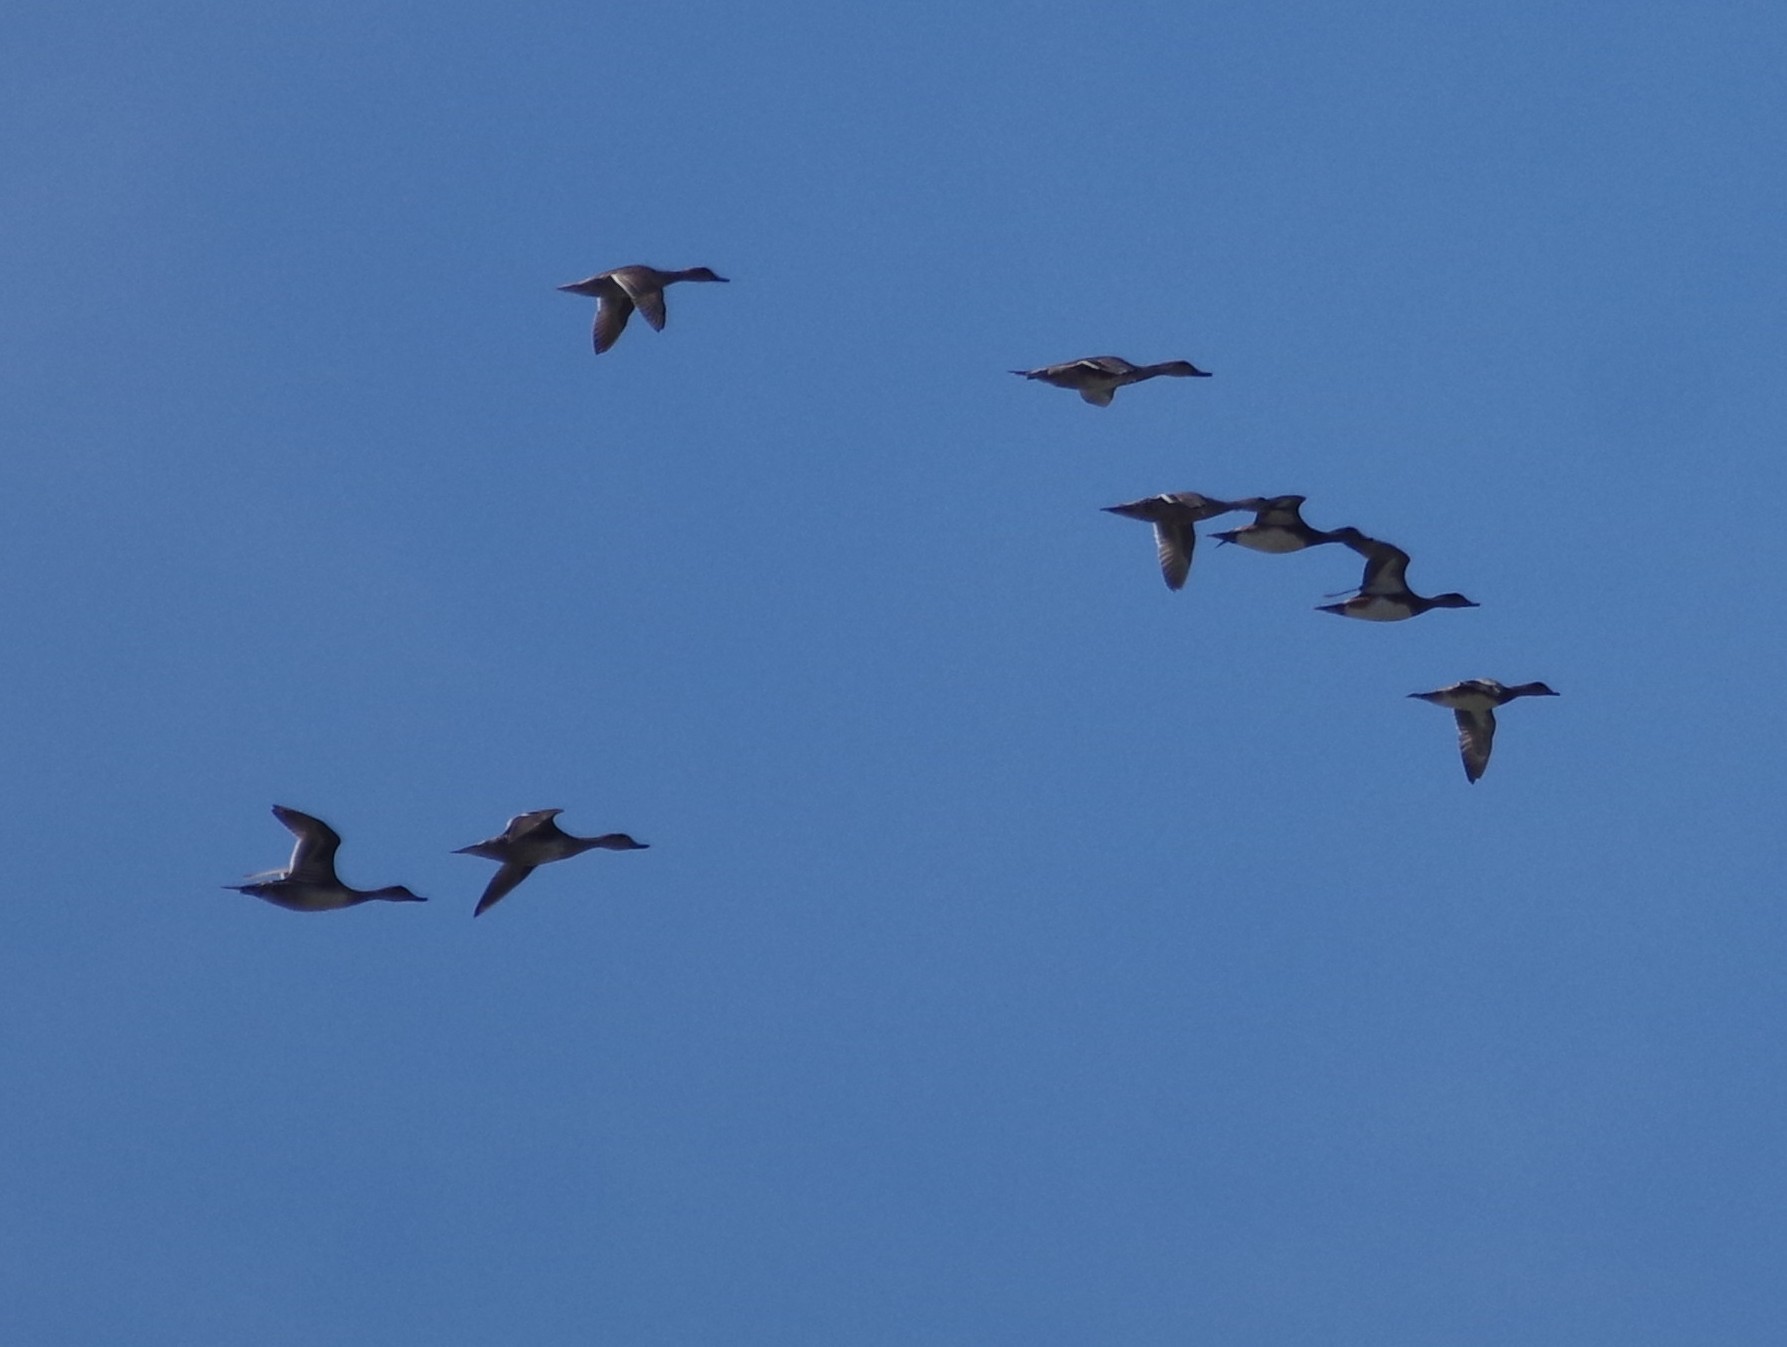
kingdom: Animalia
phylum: Chordata
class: Aves
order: Anseriformes
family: Anatidae
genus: Anas
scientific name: Anas acuta
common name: Northern pintail
